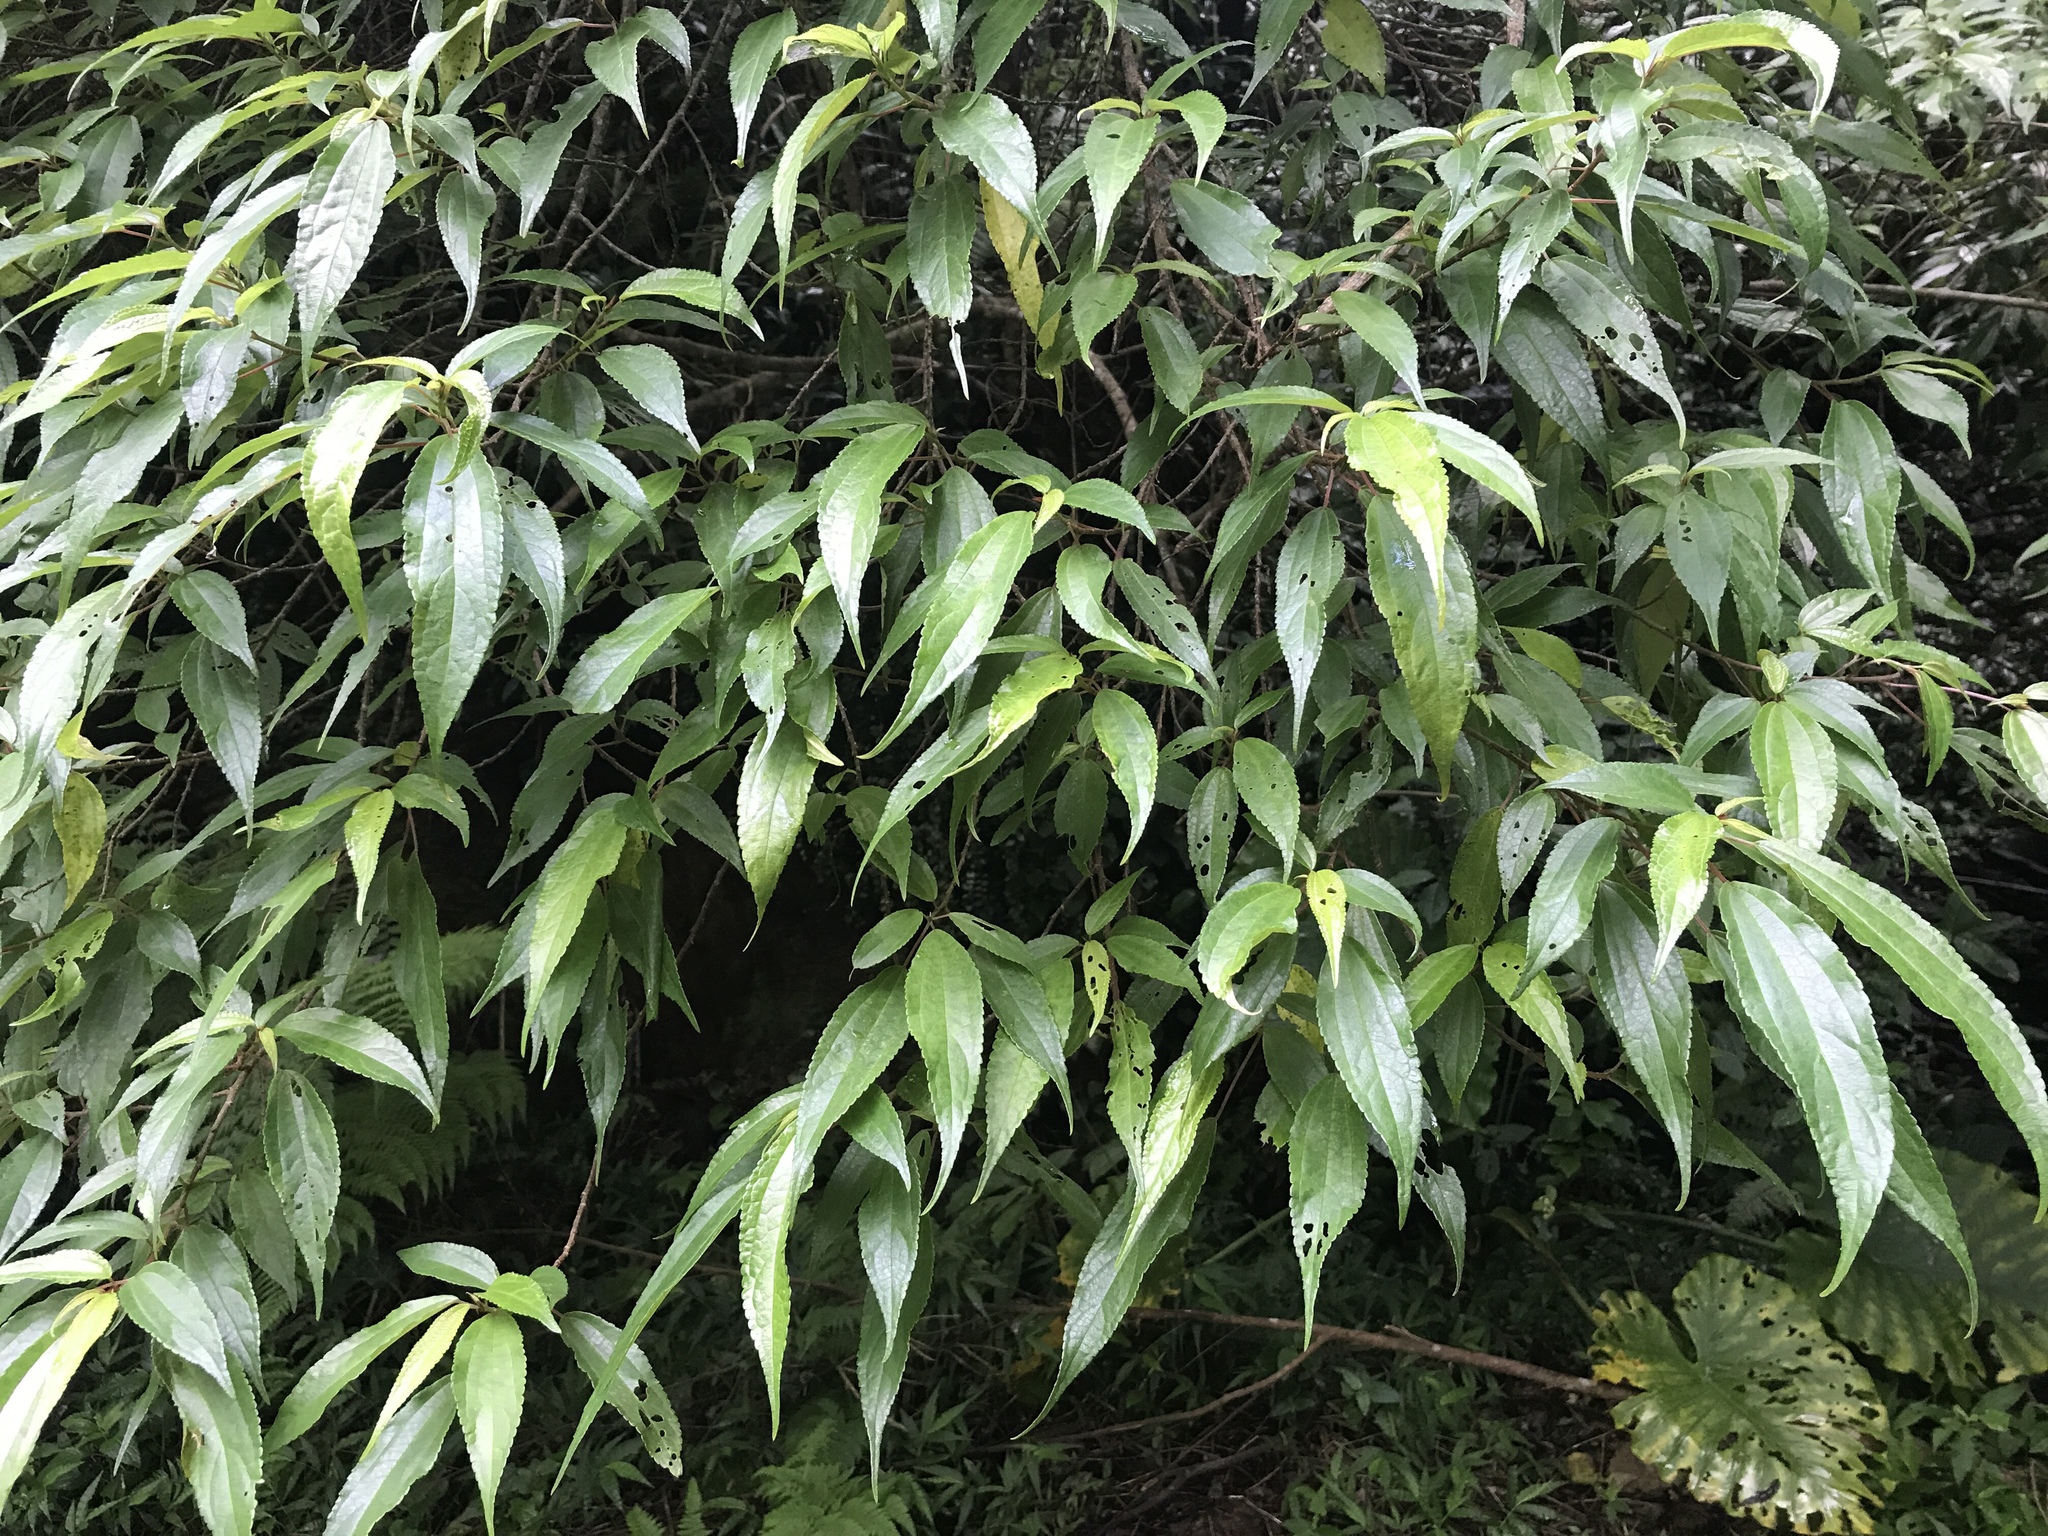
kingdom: Plantae
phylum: Tracheophyta
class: Magnoliopsida
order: Rosales
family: Urticaceae
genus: Oreocnide
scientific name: Oreocnide pedunculata
